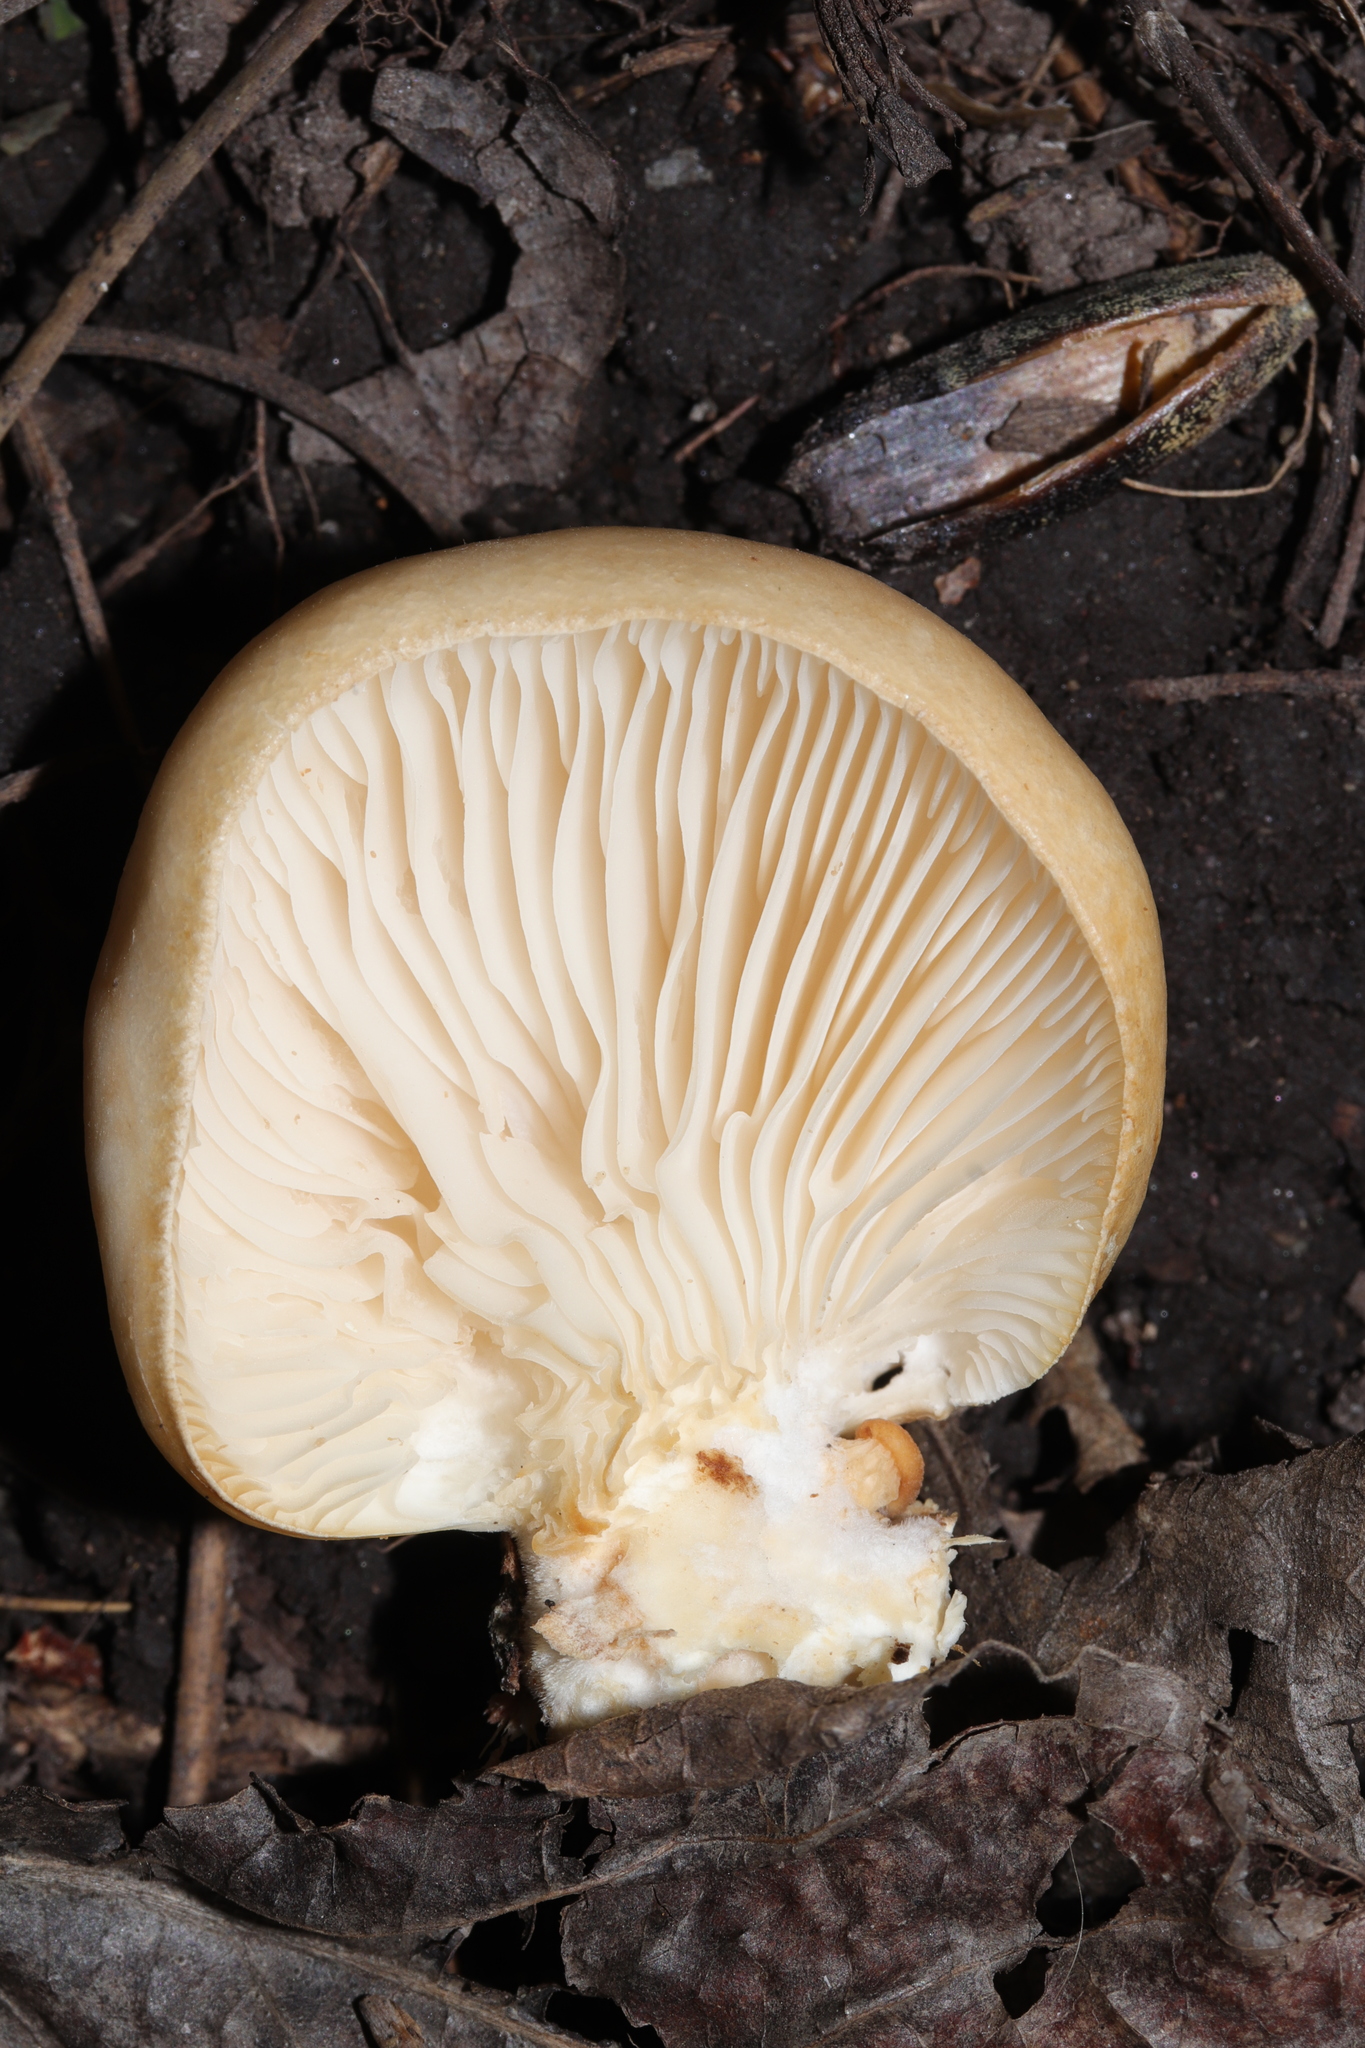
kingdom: Fungi
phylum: Basidiomycota
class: Agaricomycetes
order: Agaricales
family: Pleurotaceae
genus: Pleurotus
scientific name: Pleurotus populinus
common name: Aspen oyster mushroom
